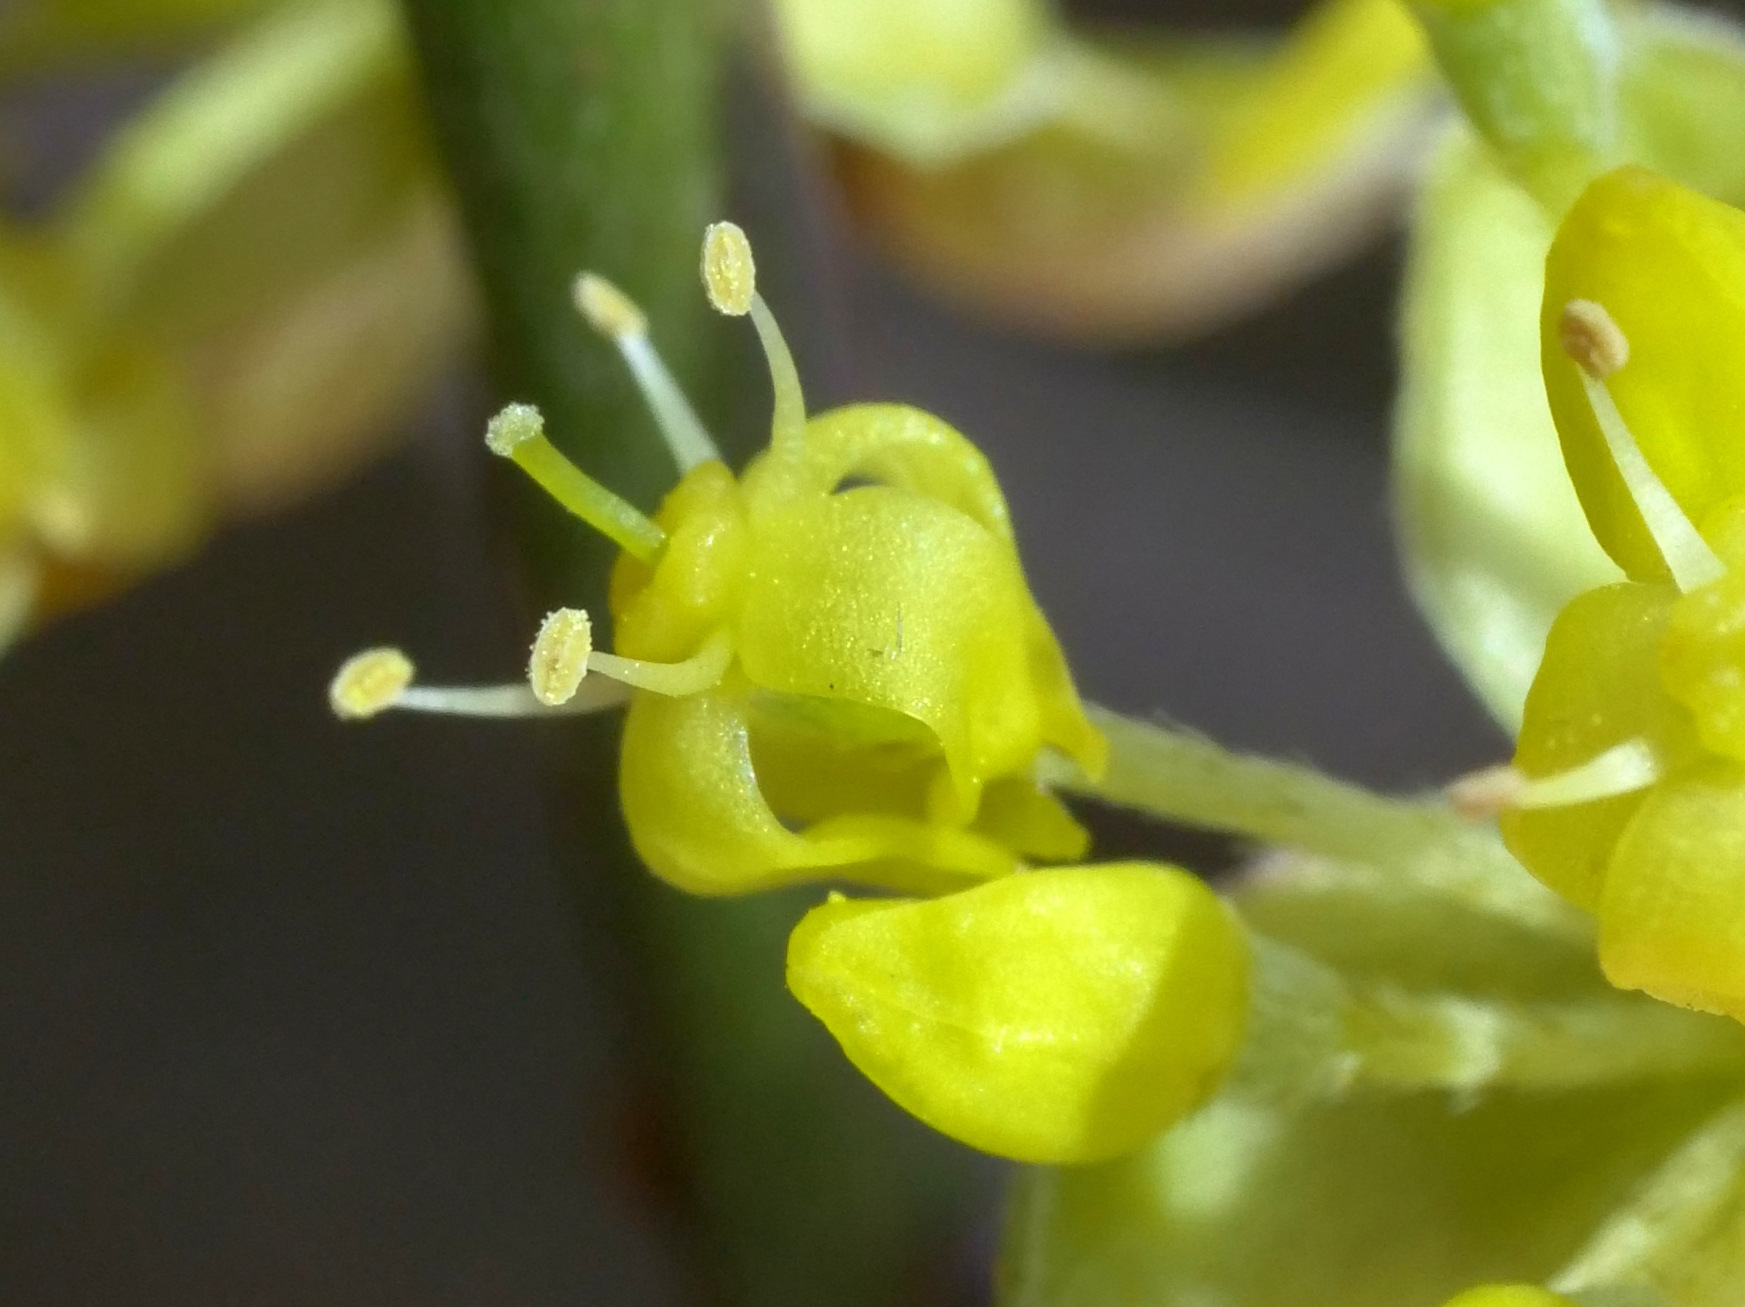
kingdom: Plantae
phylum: Tracheophyta
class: Magnoliopsida
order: Cornales
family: Cornaceae
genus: Cornus
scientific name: Cornus mas
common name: Cornelian-cherry
